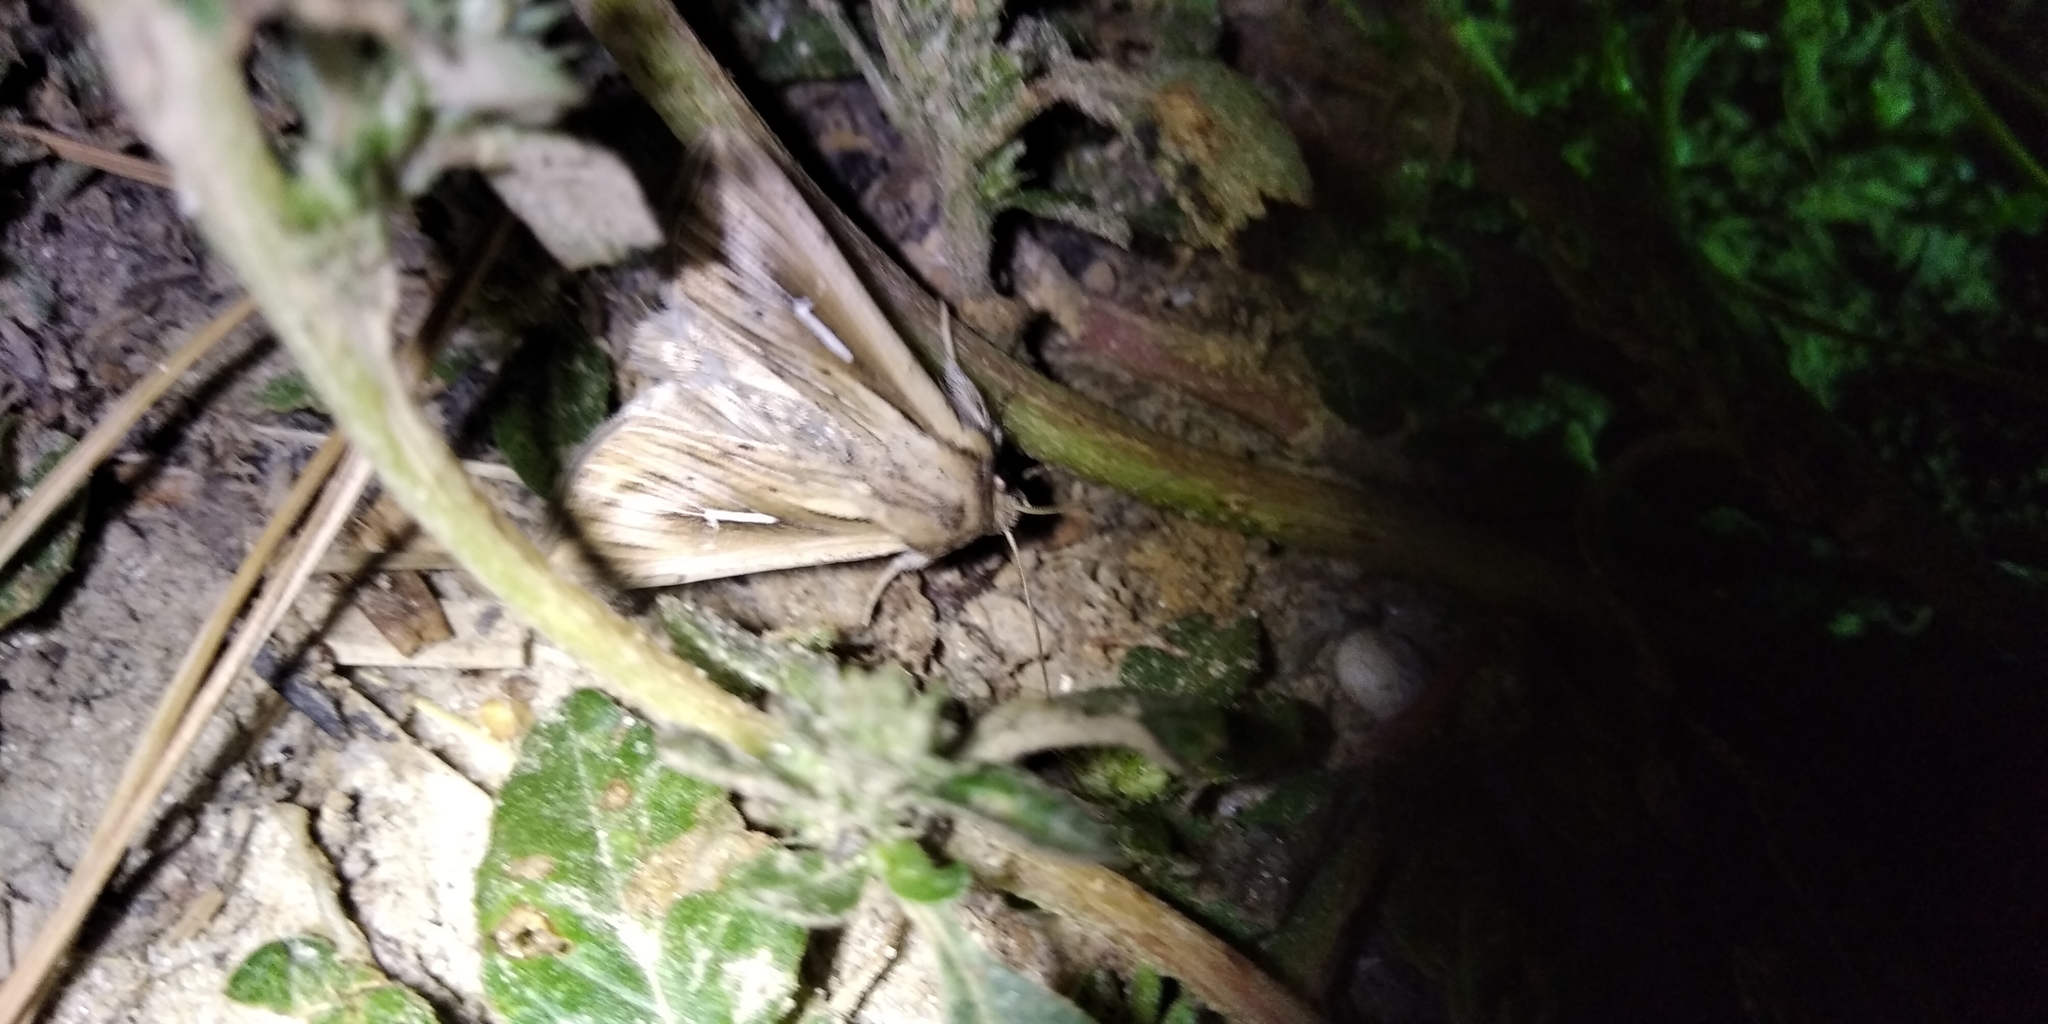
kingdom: Animalia
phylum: Arthropoda
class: Insecta
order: Lepidoptera
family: Noctuidae
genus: Mythimna
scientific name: Mythimna l-album
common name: L-album wainscot
